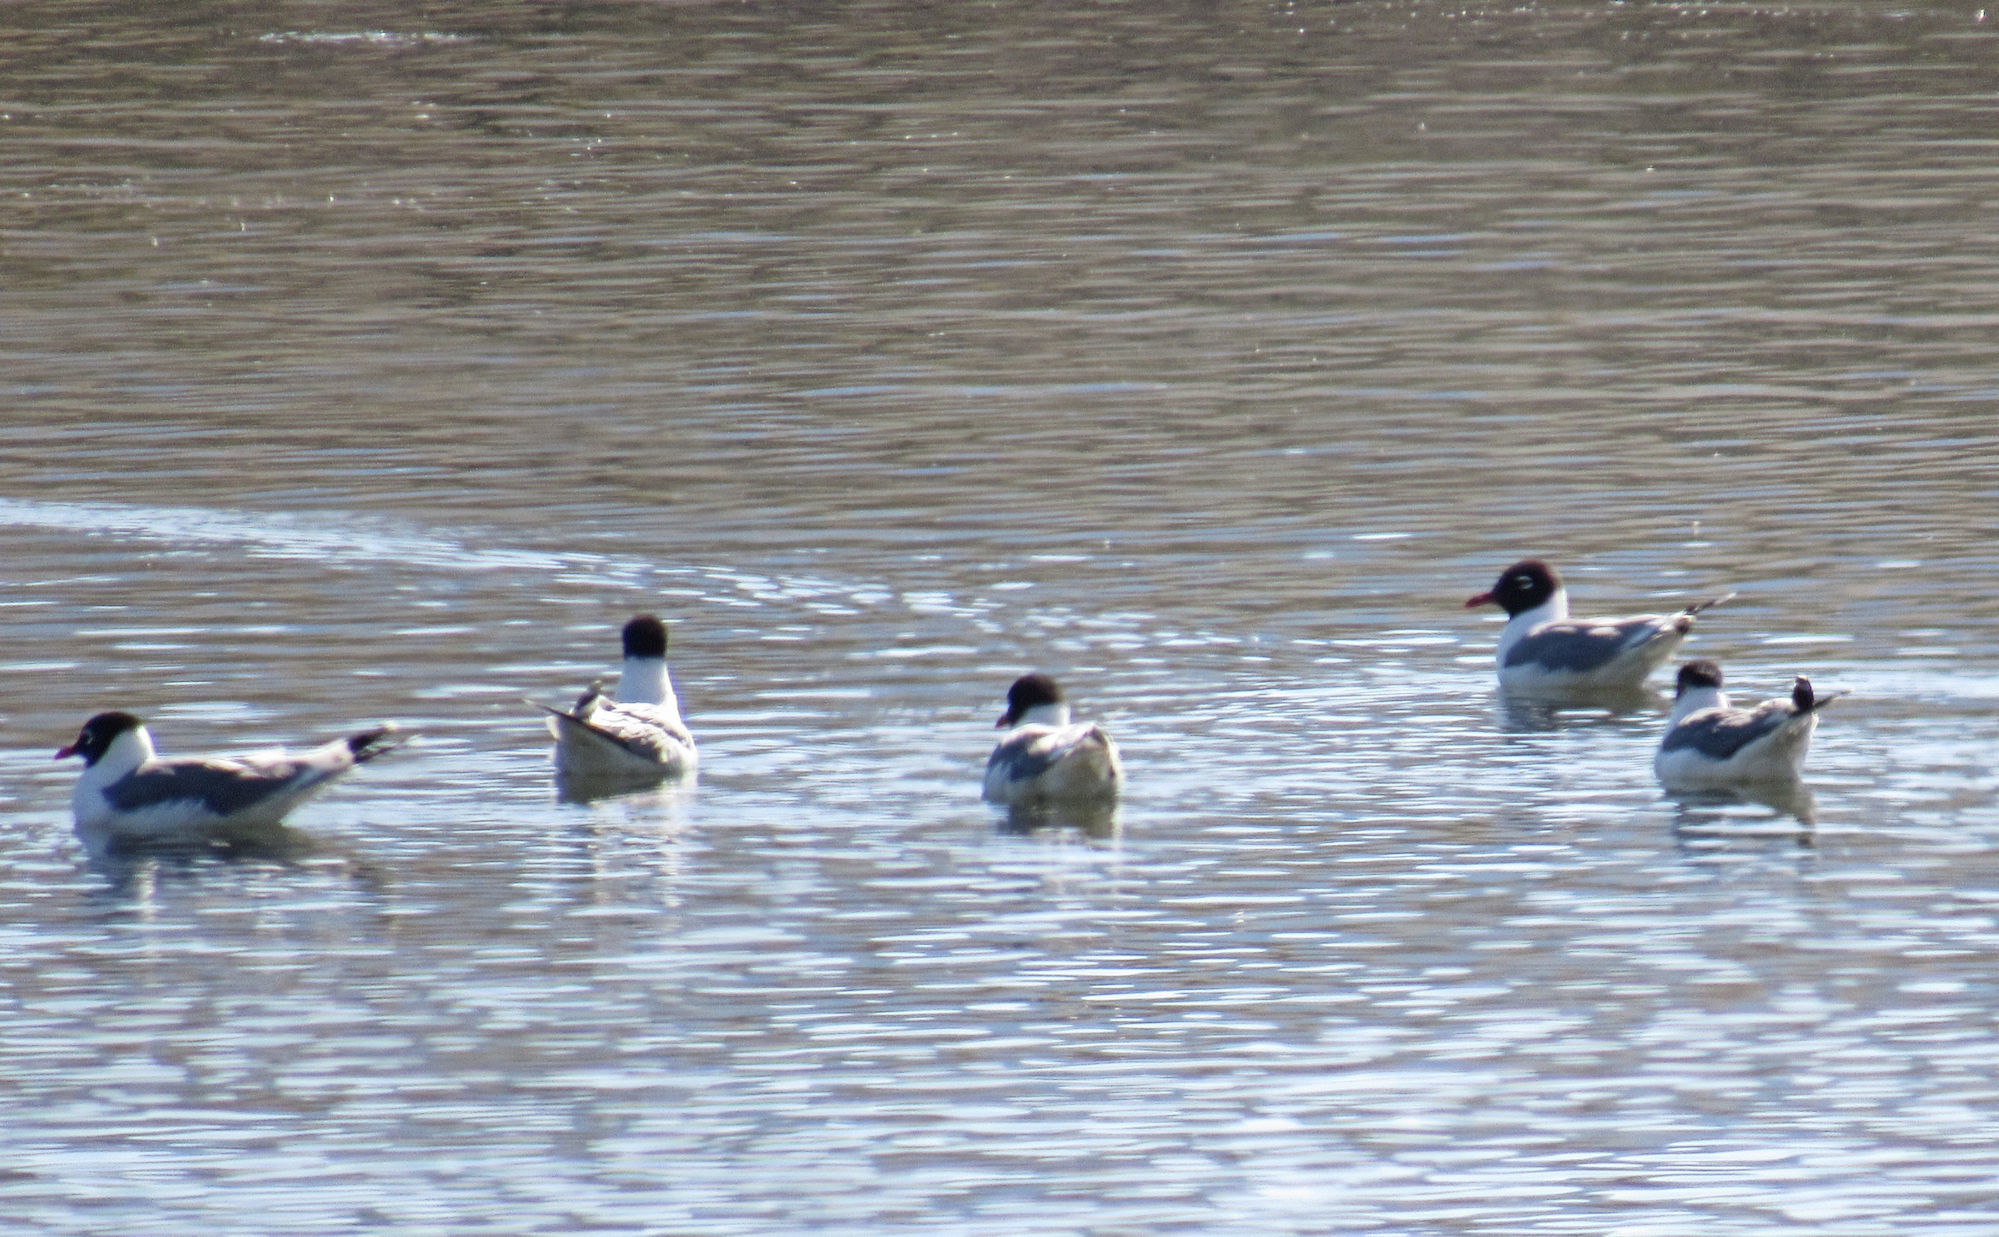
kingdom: Animalia
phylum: Chordata
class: Aves
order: Charadriiformes
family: Laridae
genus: Leucophaeus
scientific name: Leucophaeus pipixcan
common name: Franklin's gull
